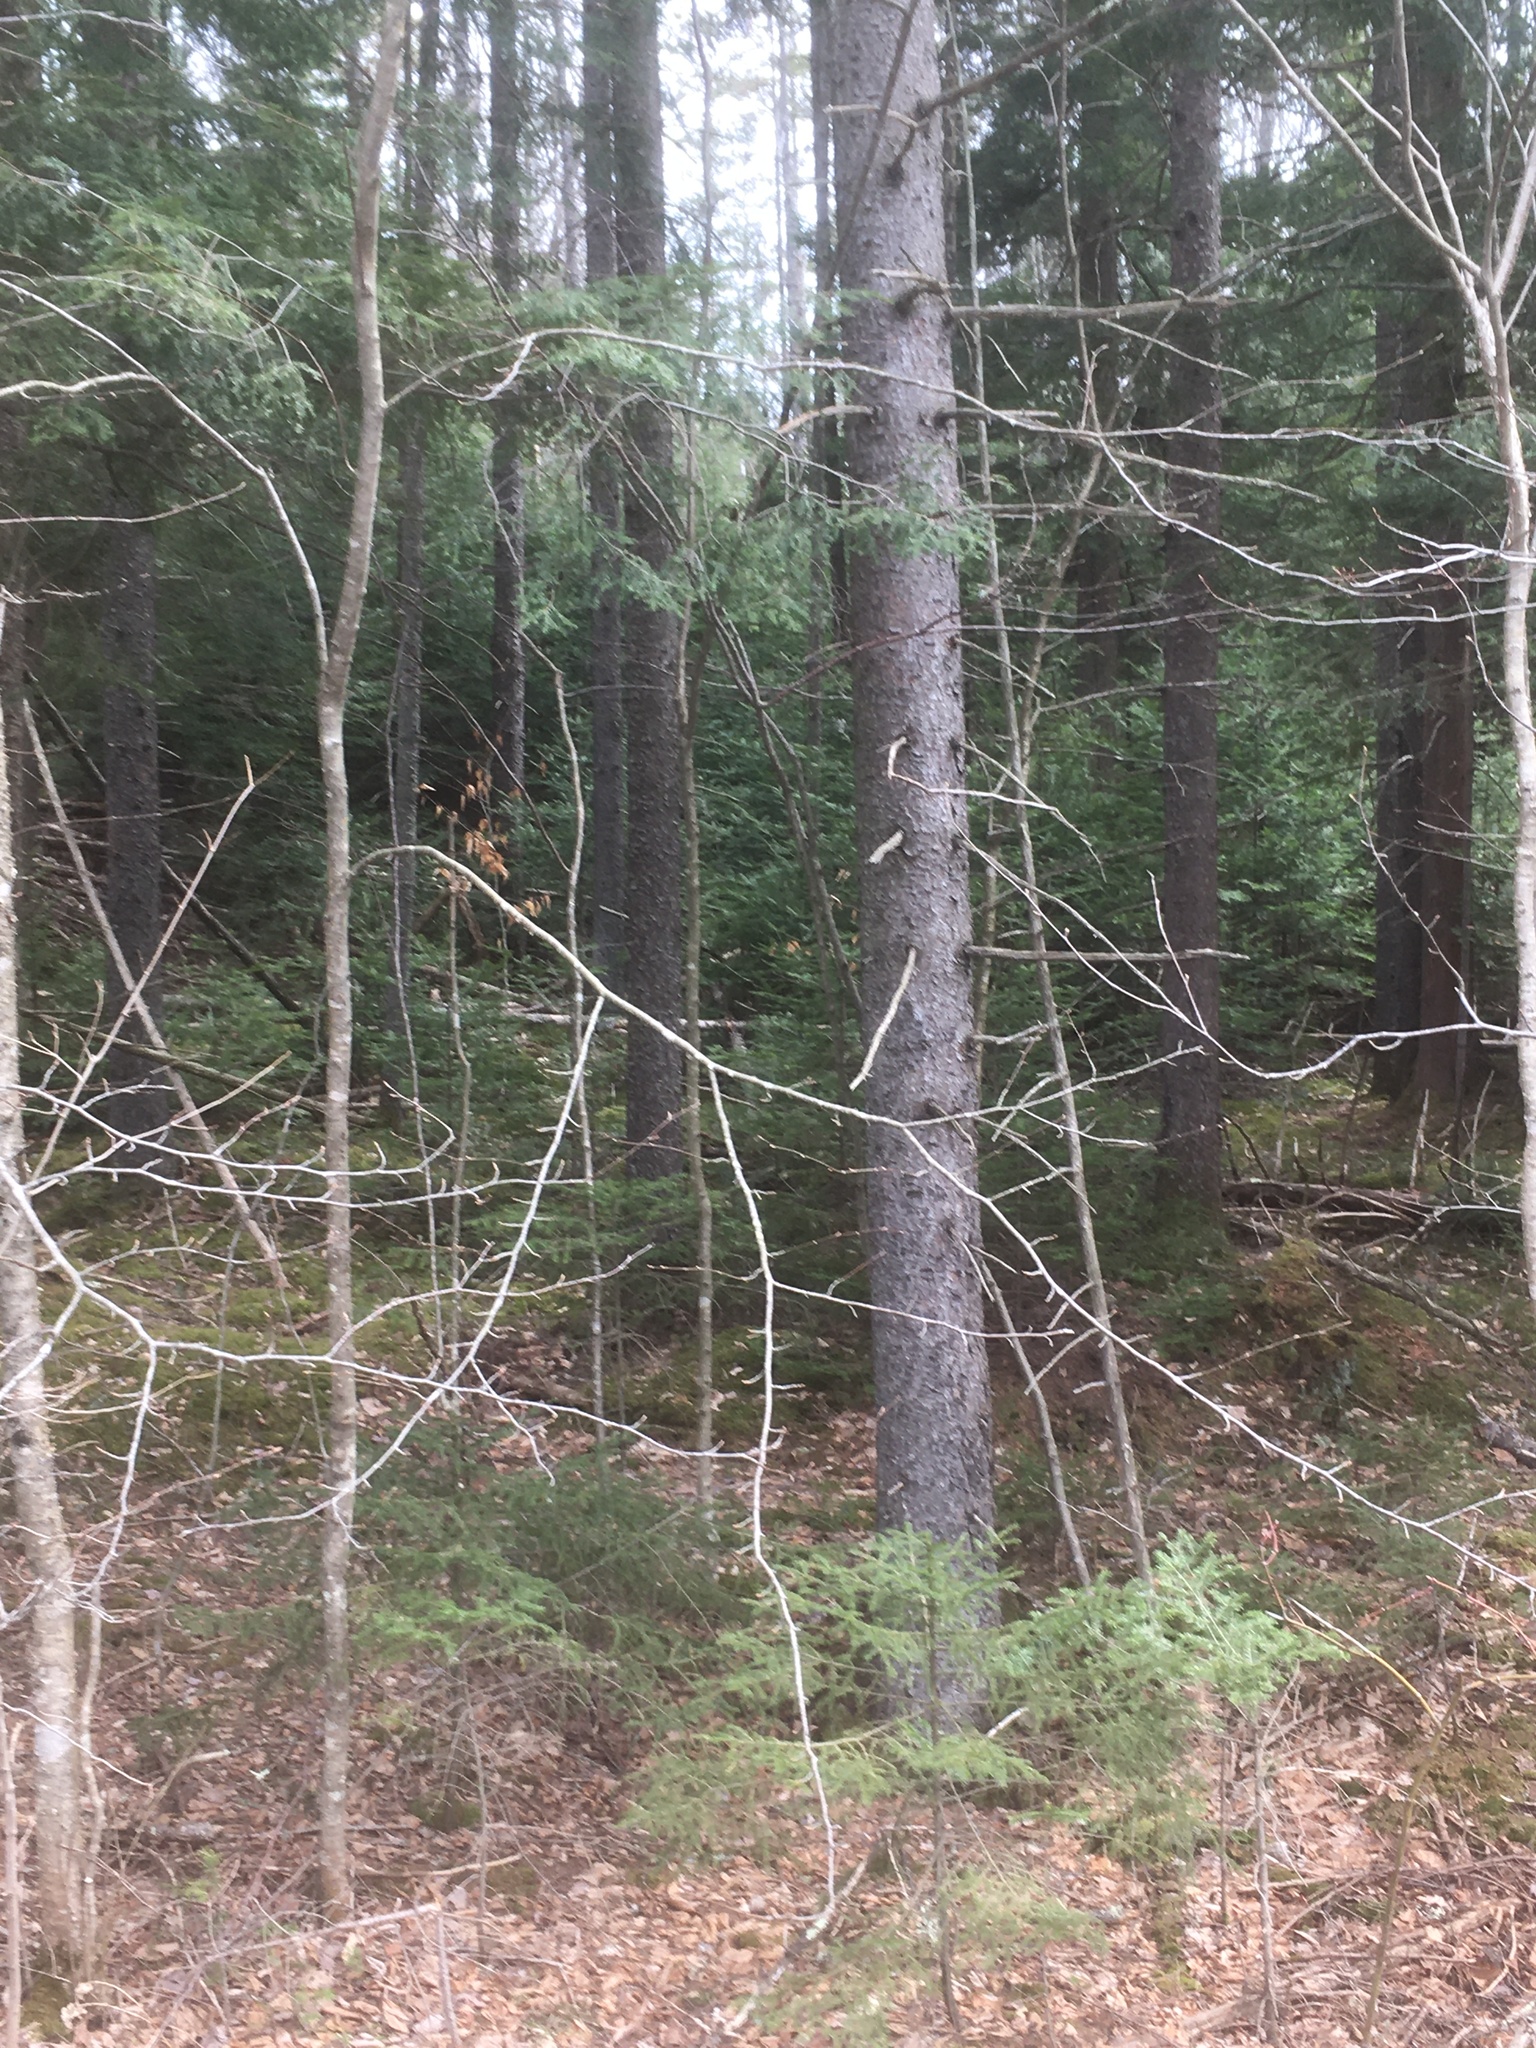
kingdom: Plantae
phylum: Tracheophyta
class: Pinopsida
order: Pinales
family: Pinaceae
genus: Picea
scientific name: Picea rubens
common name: Red spruce
